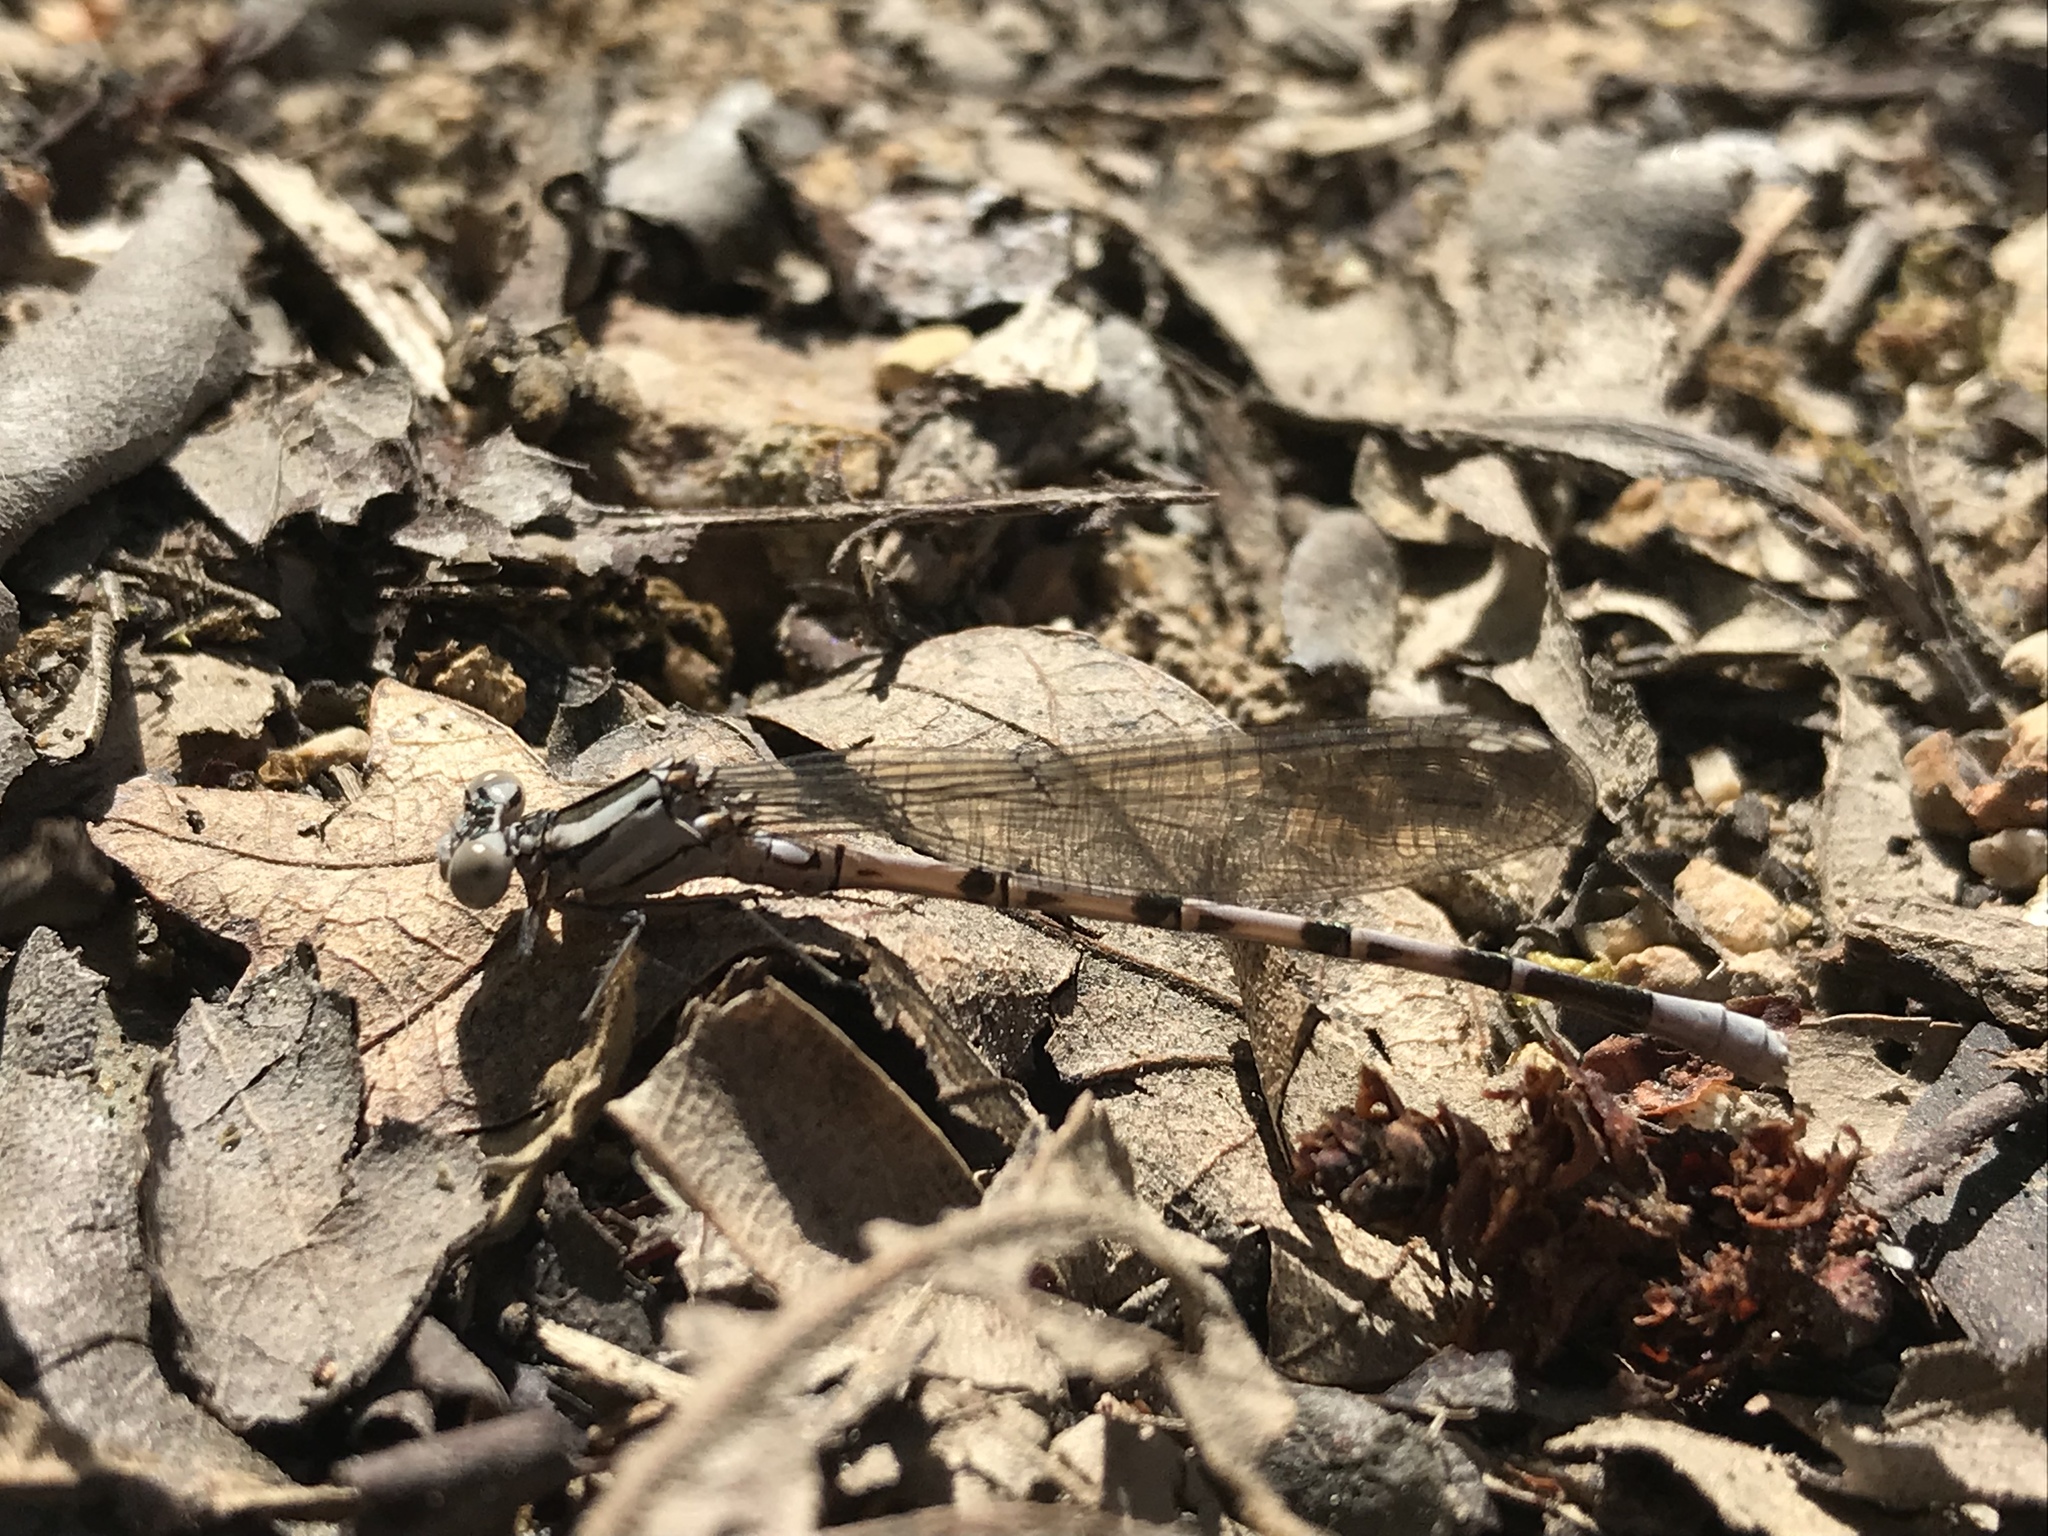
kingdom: Animalia
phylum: Arthropoda
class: Insecta
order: Odonata
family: Coenagrionidae
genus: Argia
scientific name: Argia vivida
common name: Vivid dancer
